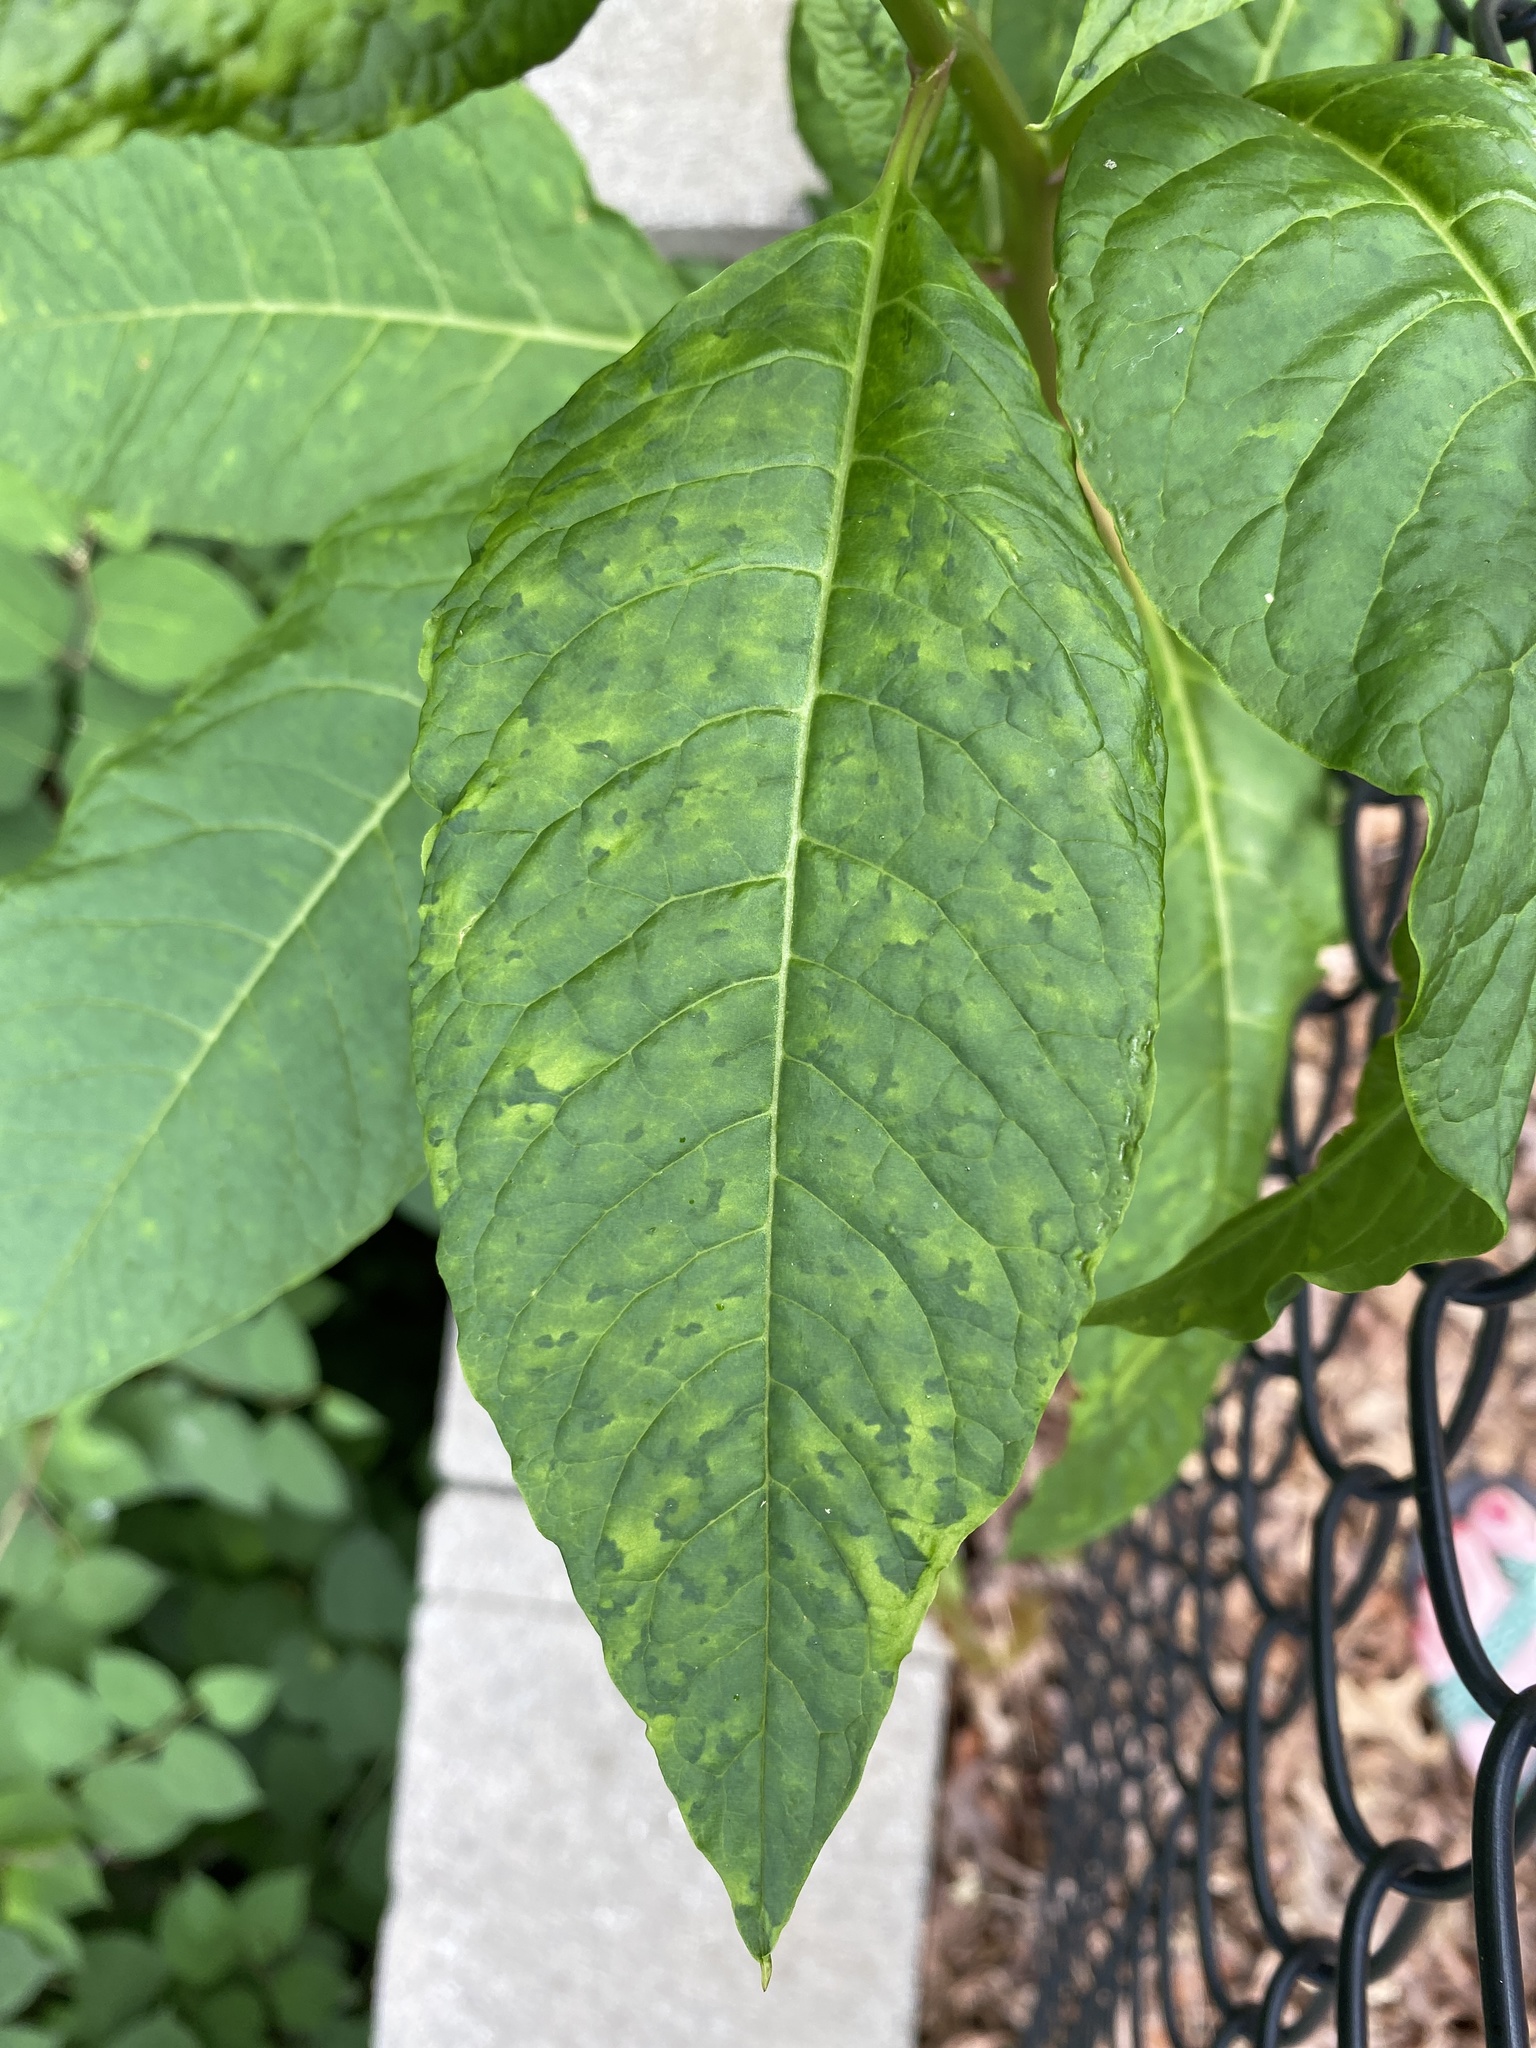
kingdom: Viruses
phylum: Pisuviricota
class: Stelpaviricetes
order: Patatavirales
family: Potyviridae
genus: Potyvirus
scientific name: Potyvirus Pokeweed mosaic virus
